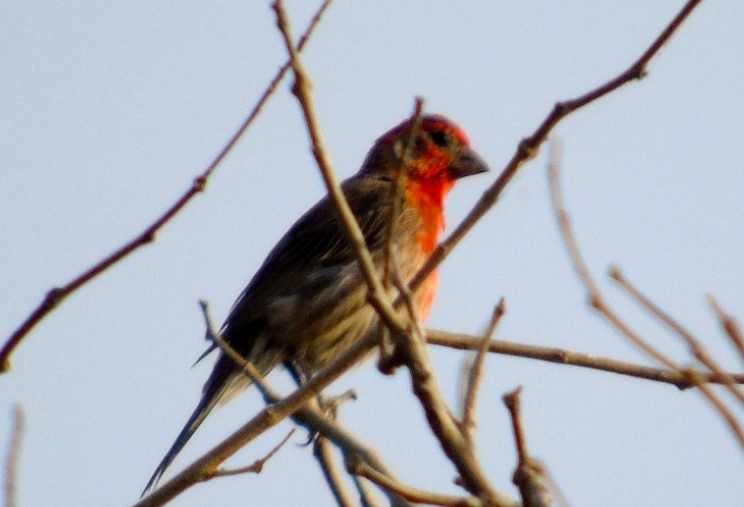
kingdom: Animalia
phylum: Chordata
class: Aves
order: Passeriformes
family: Fringillidae
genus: Haemorhous
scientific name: Haemorhous mexicanus
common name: House finch
